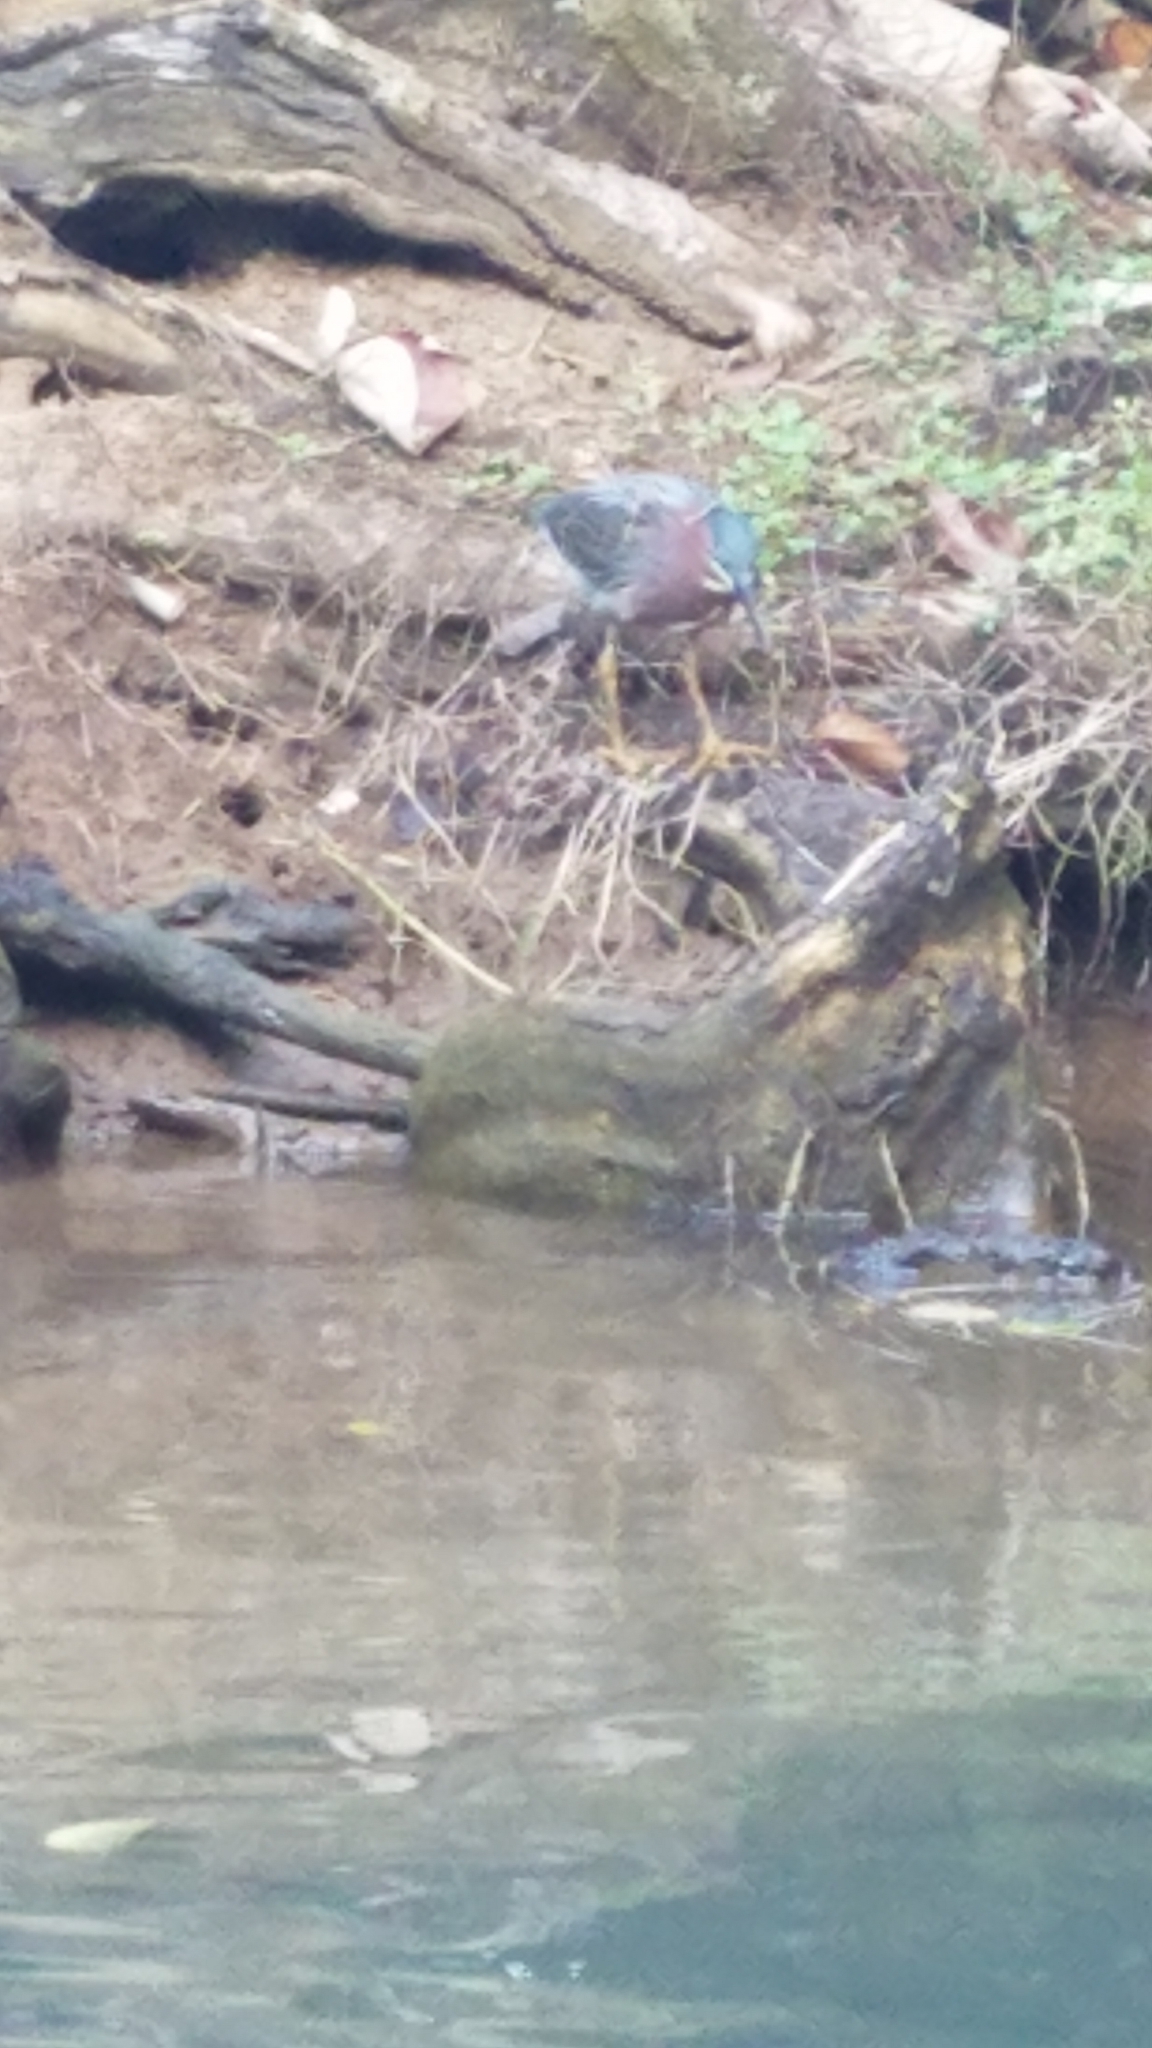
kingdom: Animalia
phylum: Chordata
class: Aves
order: Pelecaniformes
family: Ardeidae
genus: Butorides
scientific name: Butorides virescens
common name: Green heron
